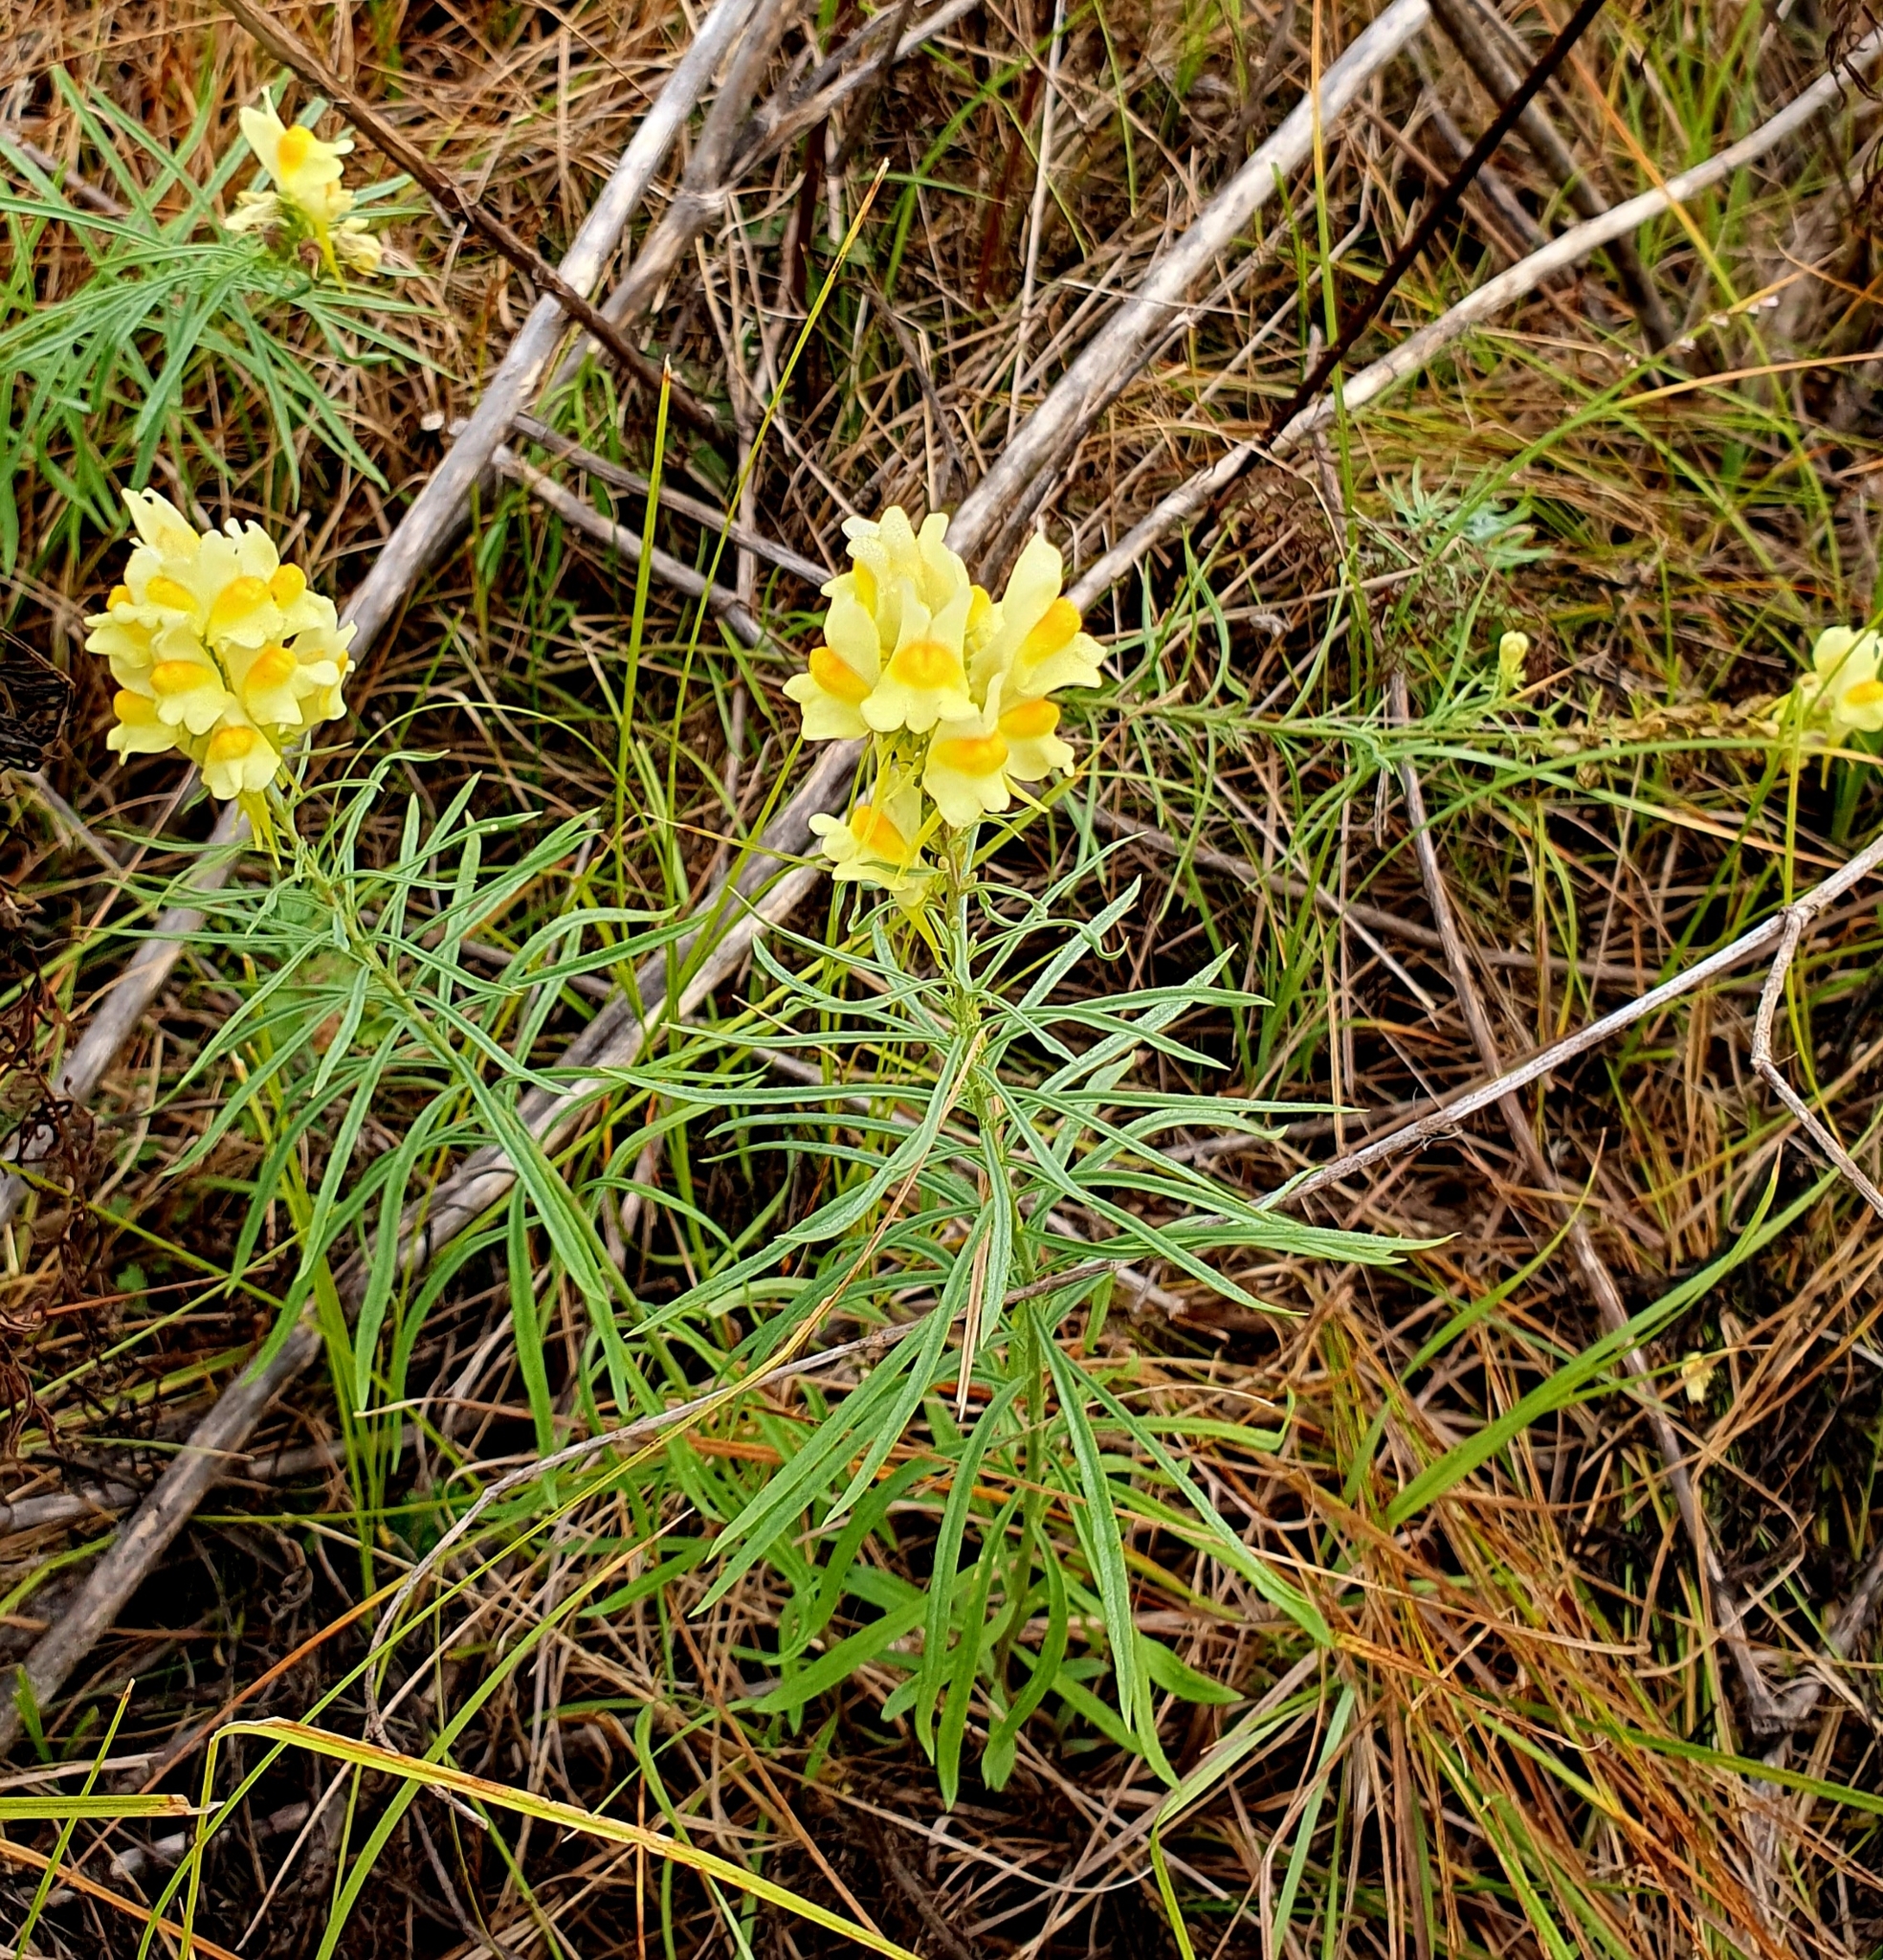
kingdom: Plantae
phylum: Tracheophyta
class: Magnoliopsida
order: Lamiales
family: Plantaginaceae
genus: Linaria
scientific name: Linaria vulgaris
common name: Butter and eggs
